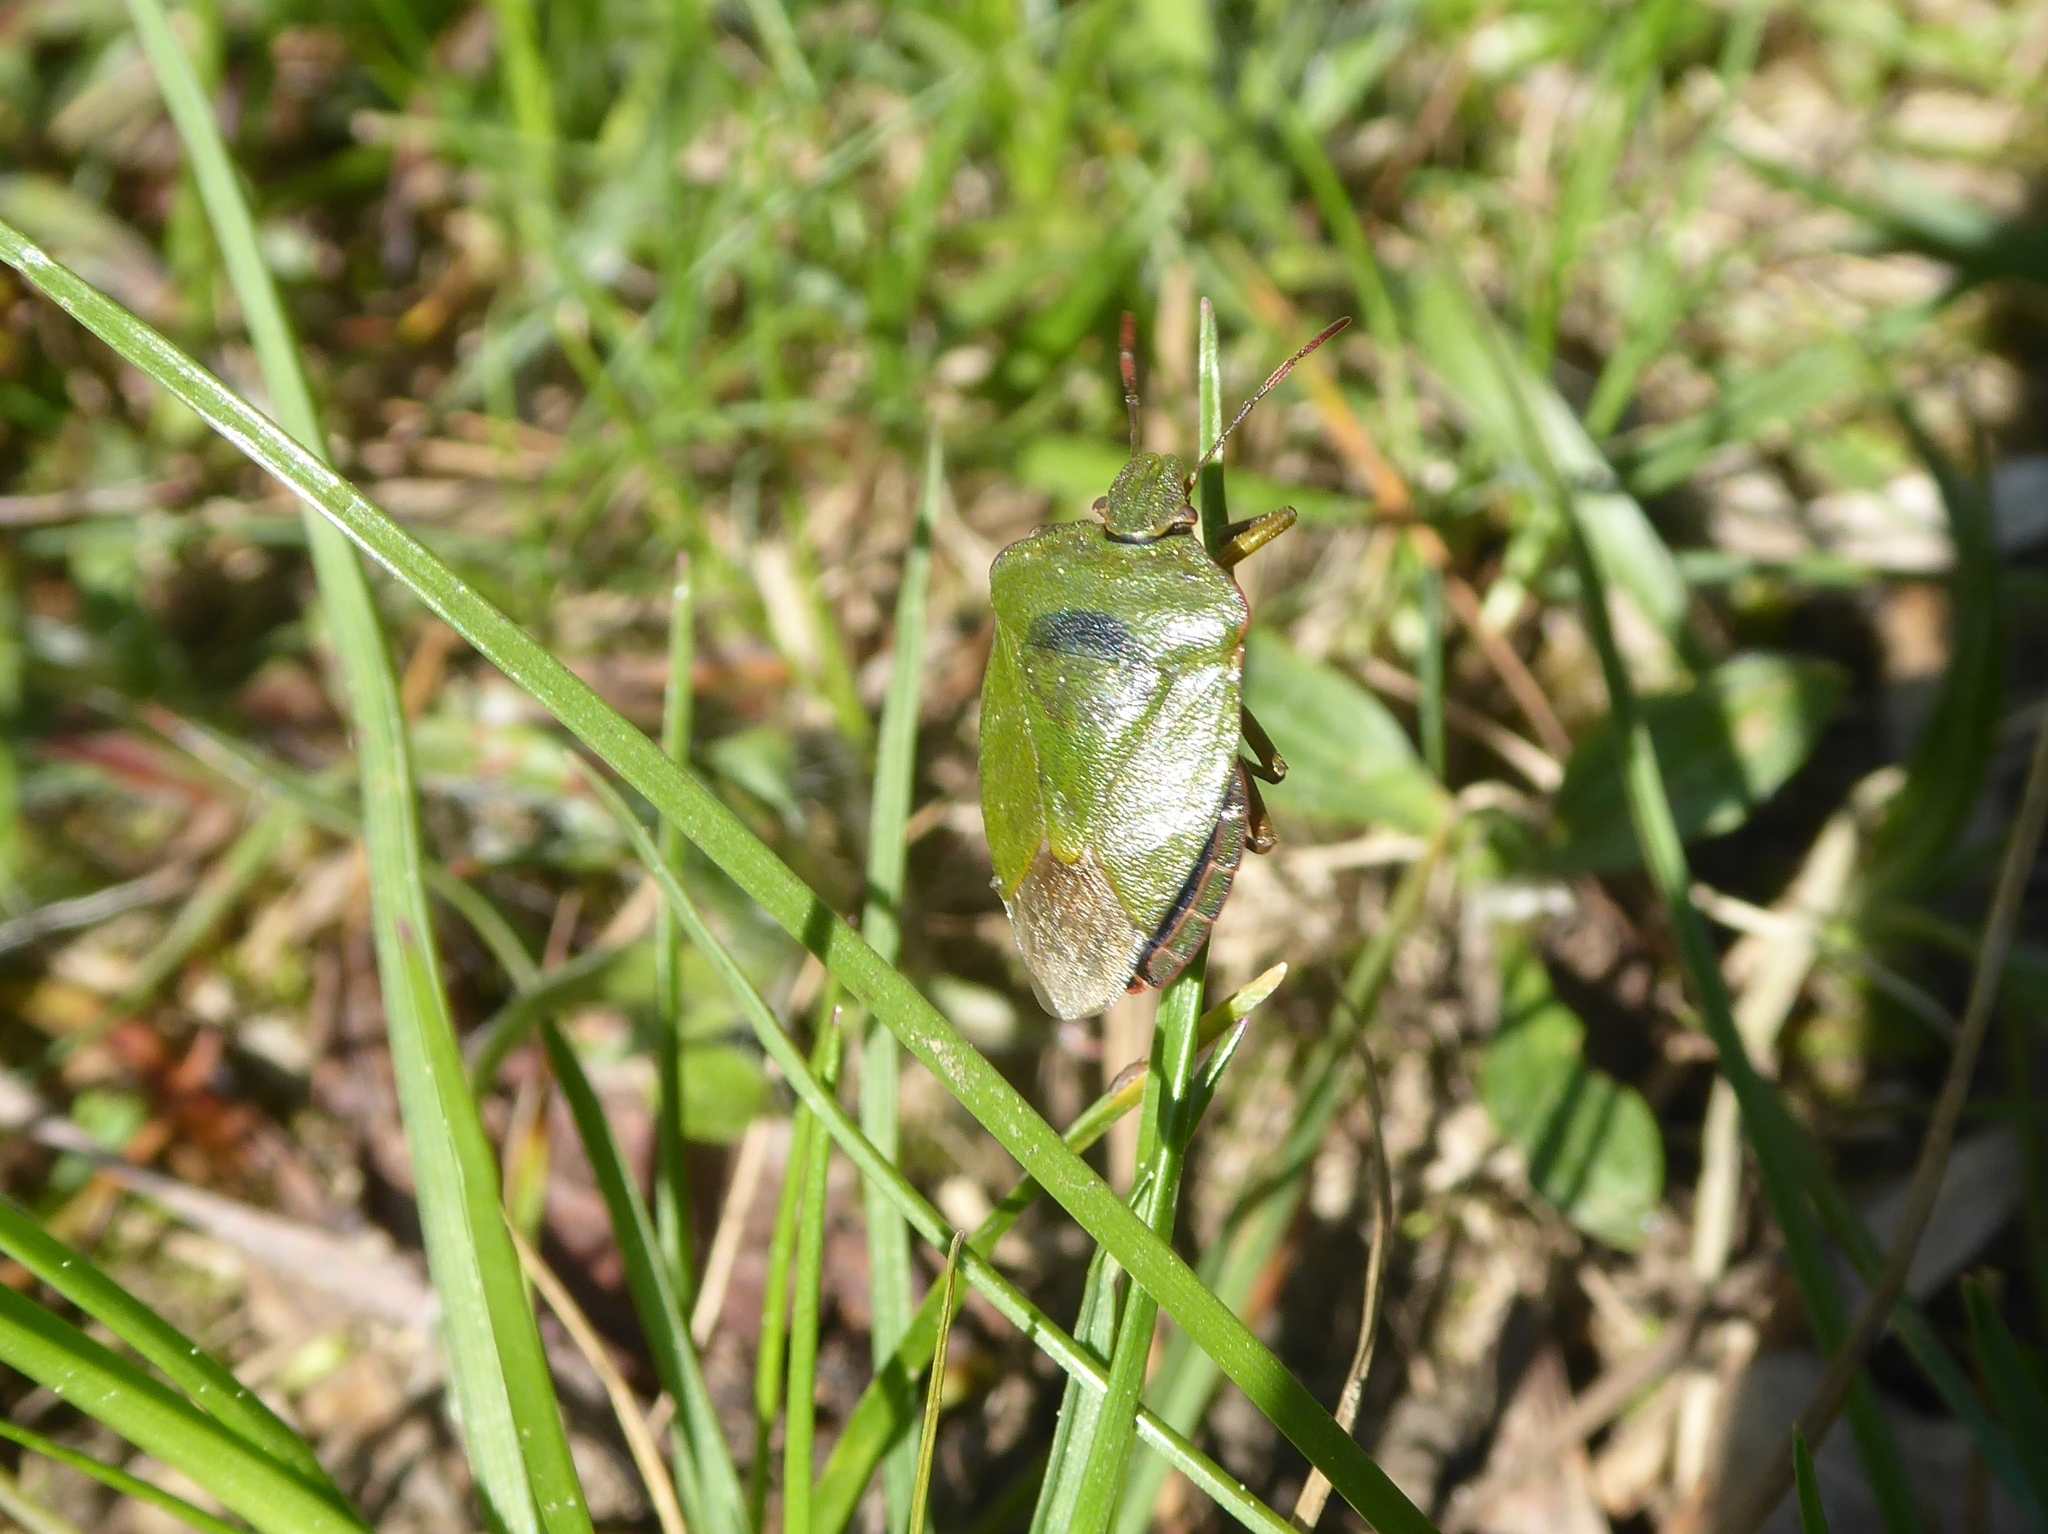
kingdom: Animalia
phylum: Arthropoda
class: Insecta
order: Hemiptera
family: Pentatomidae
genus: Palomena
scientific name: Palomena prasina
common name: Green shieldbug
